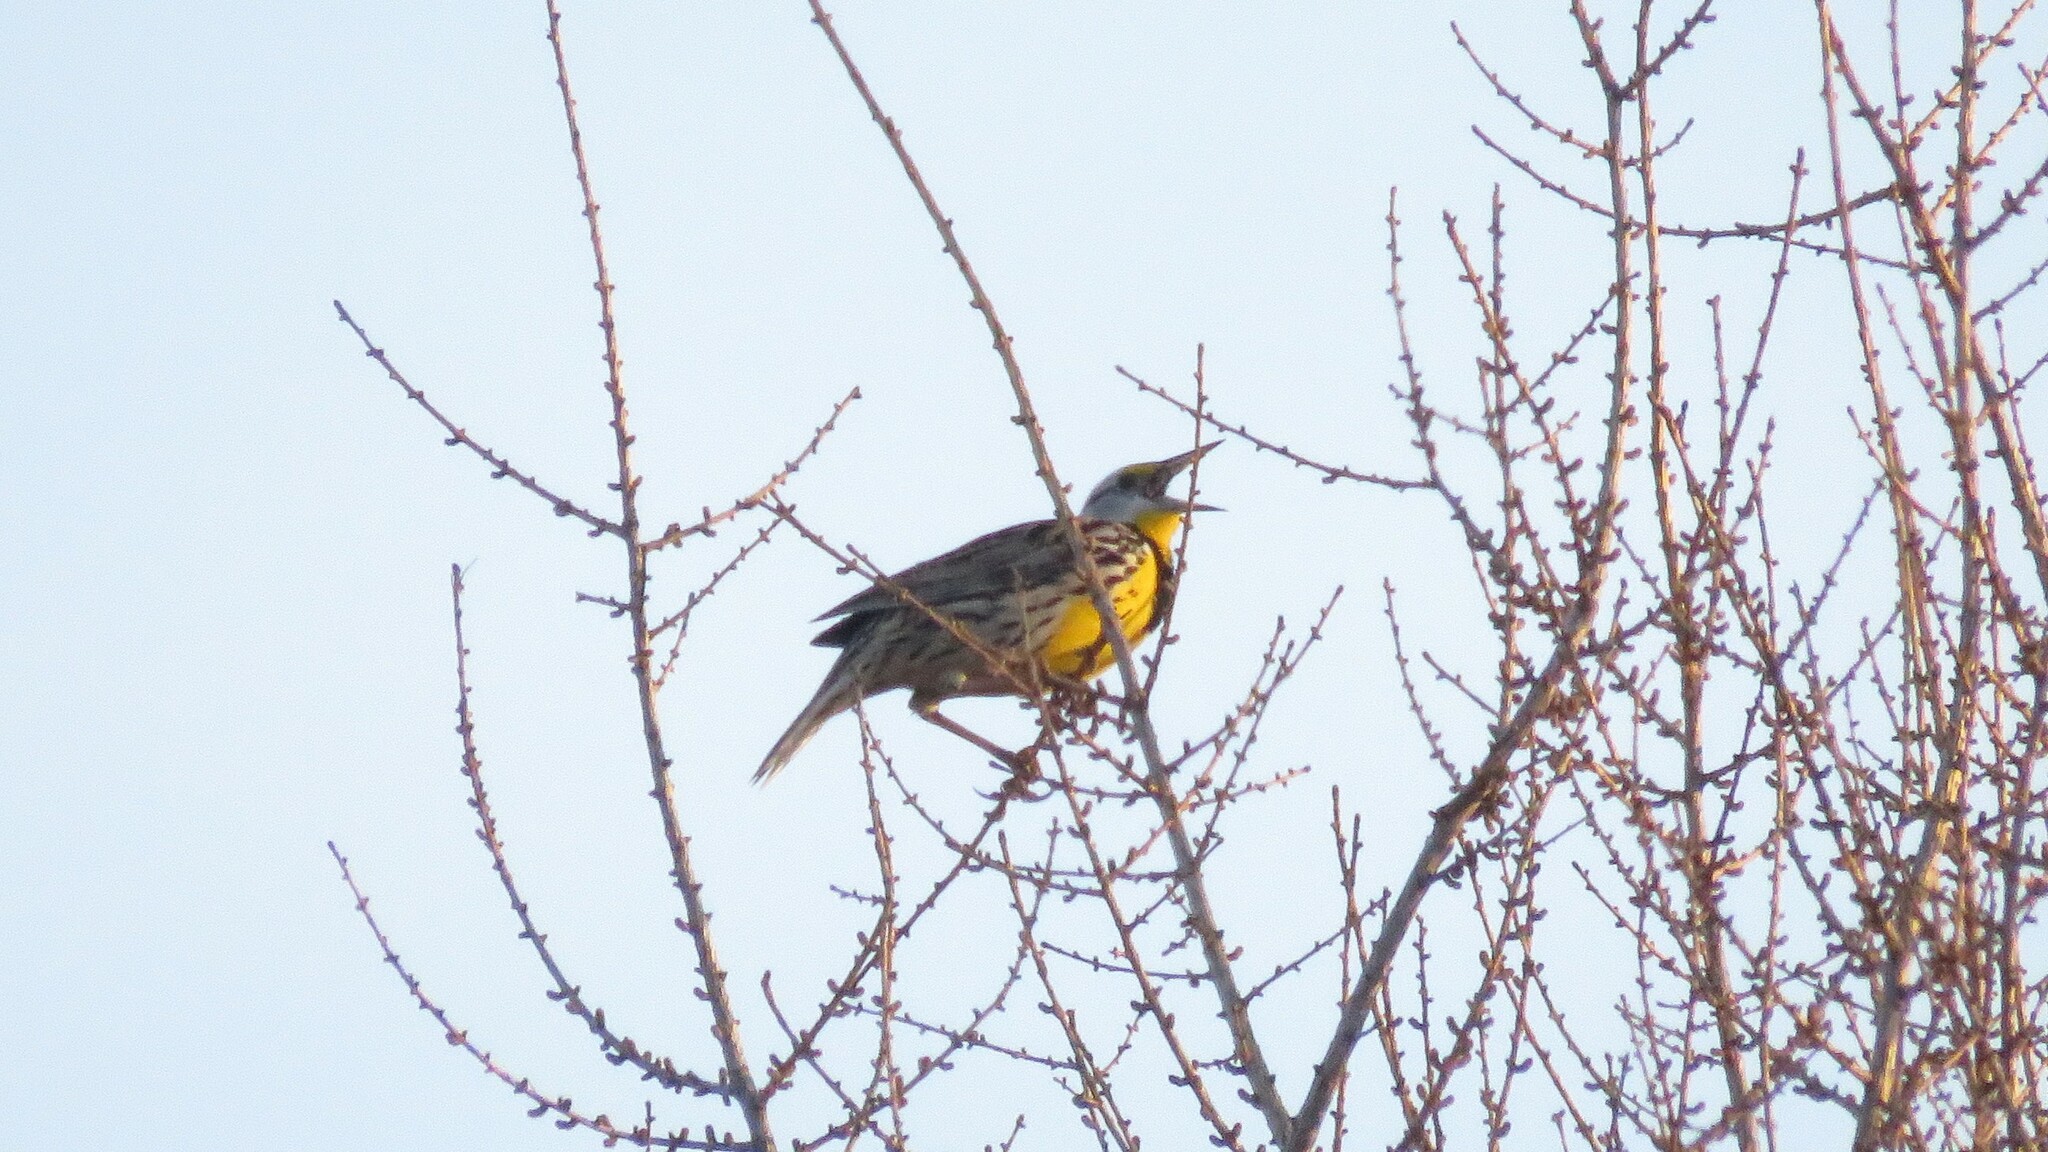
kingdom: Animalia
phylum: Chordata
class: Aves
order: Passeriformes
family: Icteridae
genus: Sturnella
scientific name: Sturnella magna
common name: Eastern meadowlark
